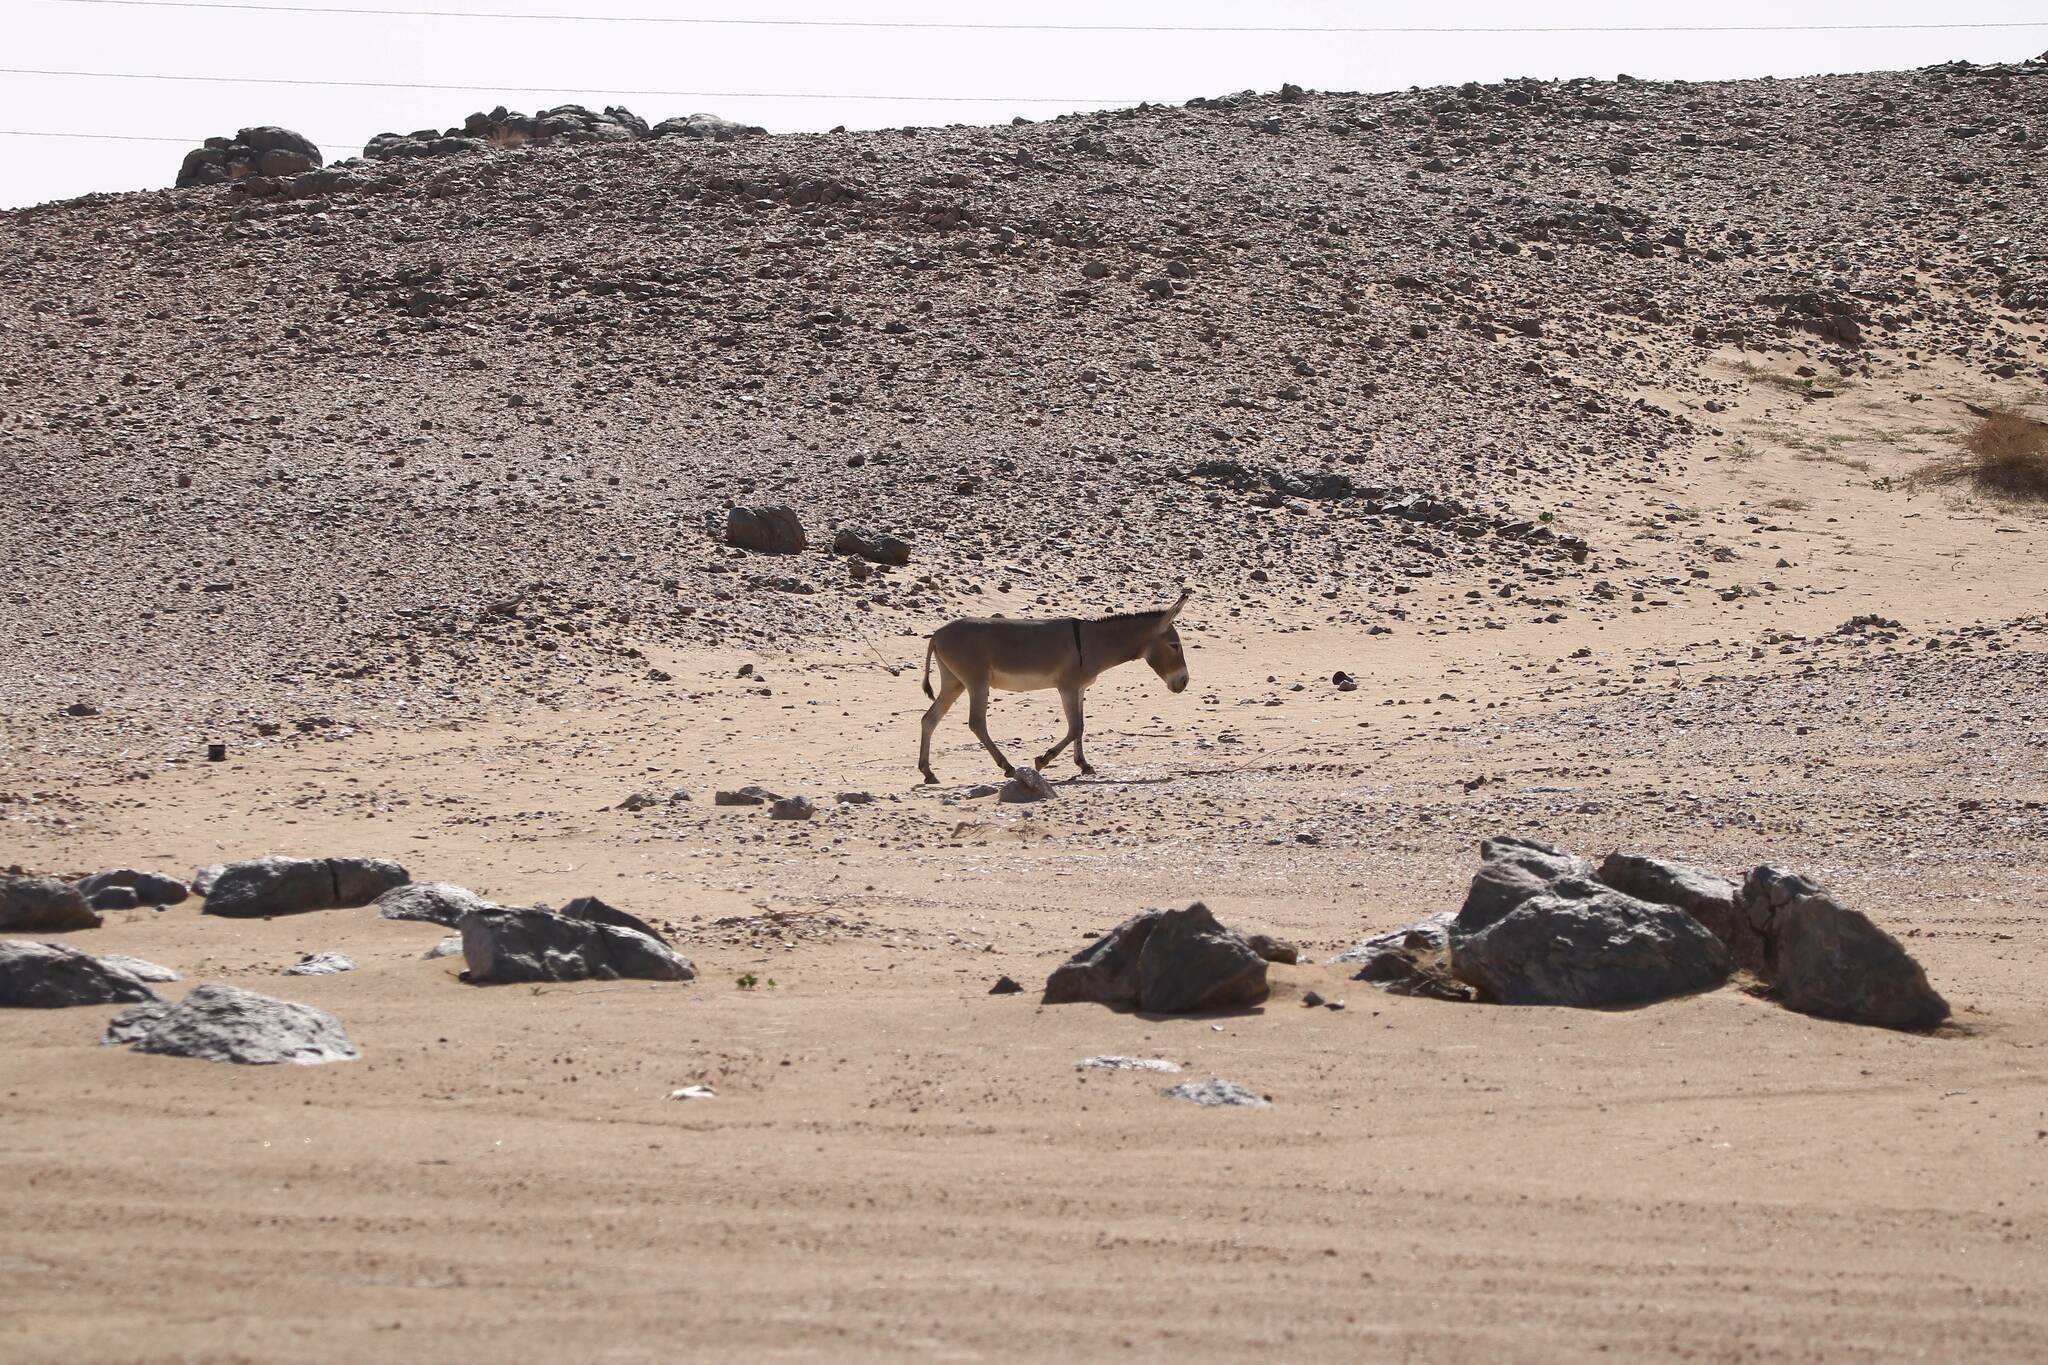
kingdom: Animalia
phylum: Chordata
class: Mammalia
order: Perissodactyla
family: Equidae
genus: Equus
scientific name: Equus asinus
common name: Ass
